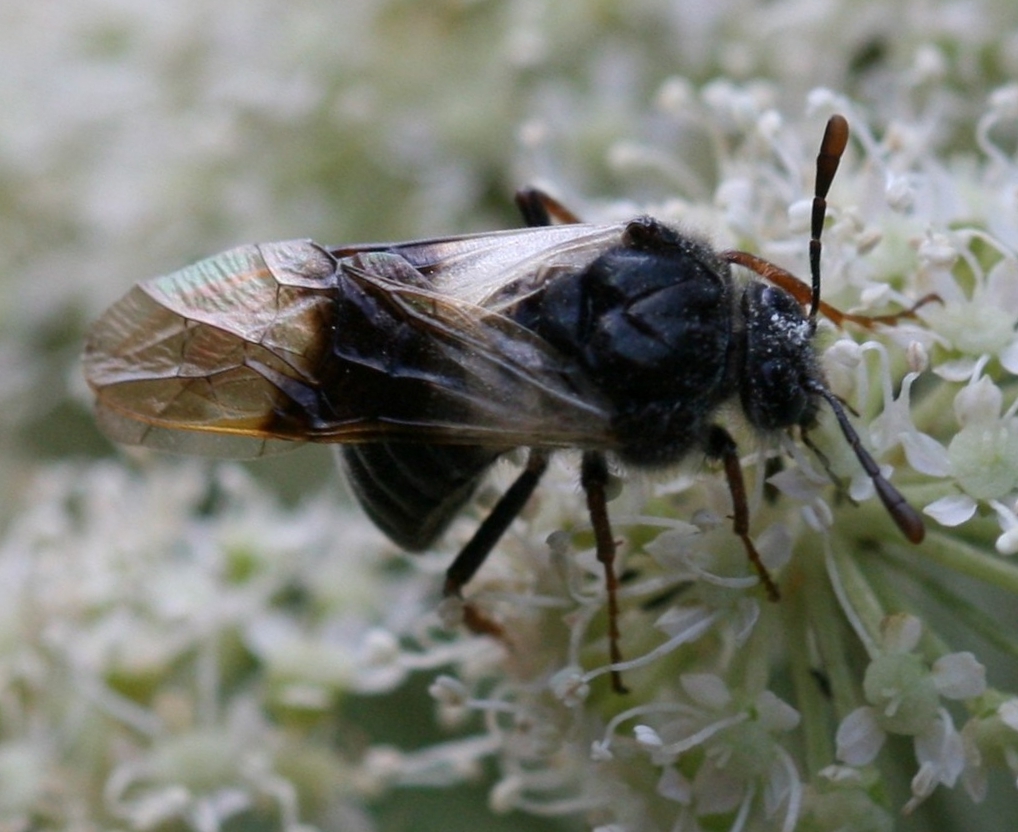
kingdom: Animalia
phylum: Arthropoda
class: Insecta
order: Hymenoptera
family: Cimbicidae
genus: Abia
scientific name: Abia fasciata
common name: Banded honeysuckle sawfly
